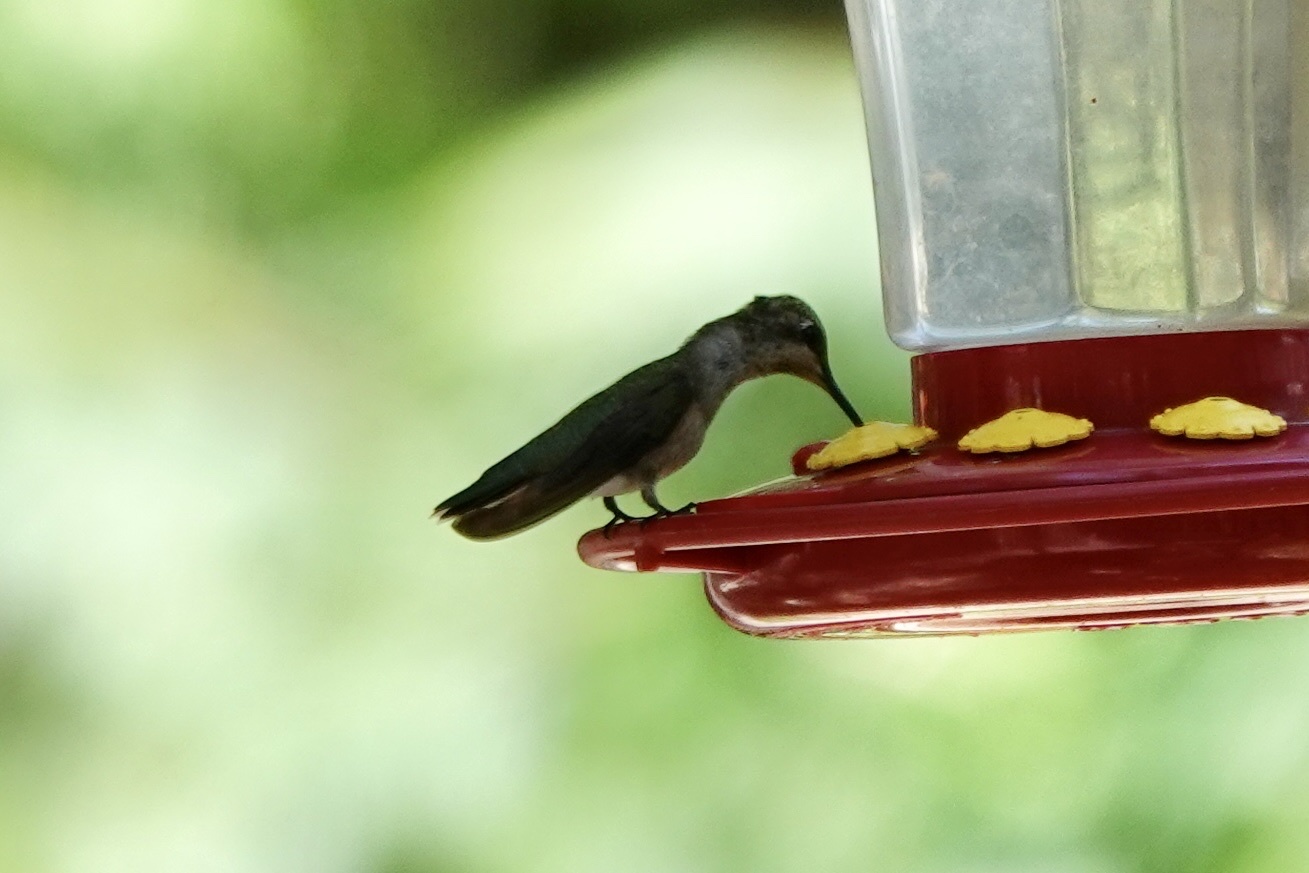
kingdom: Animalia
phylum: Chordata
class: Aves
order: Apodiformes
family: Trochilidae
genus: Archilochus
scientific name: Archilochus alexandri
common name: Black-chinned hummingbird
